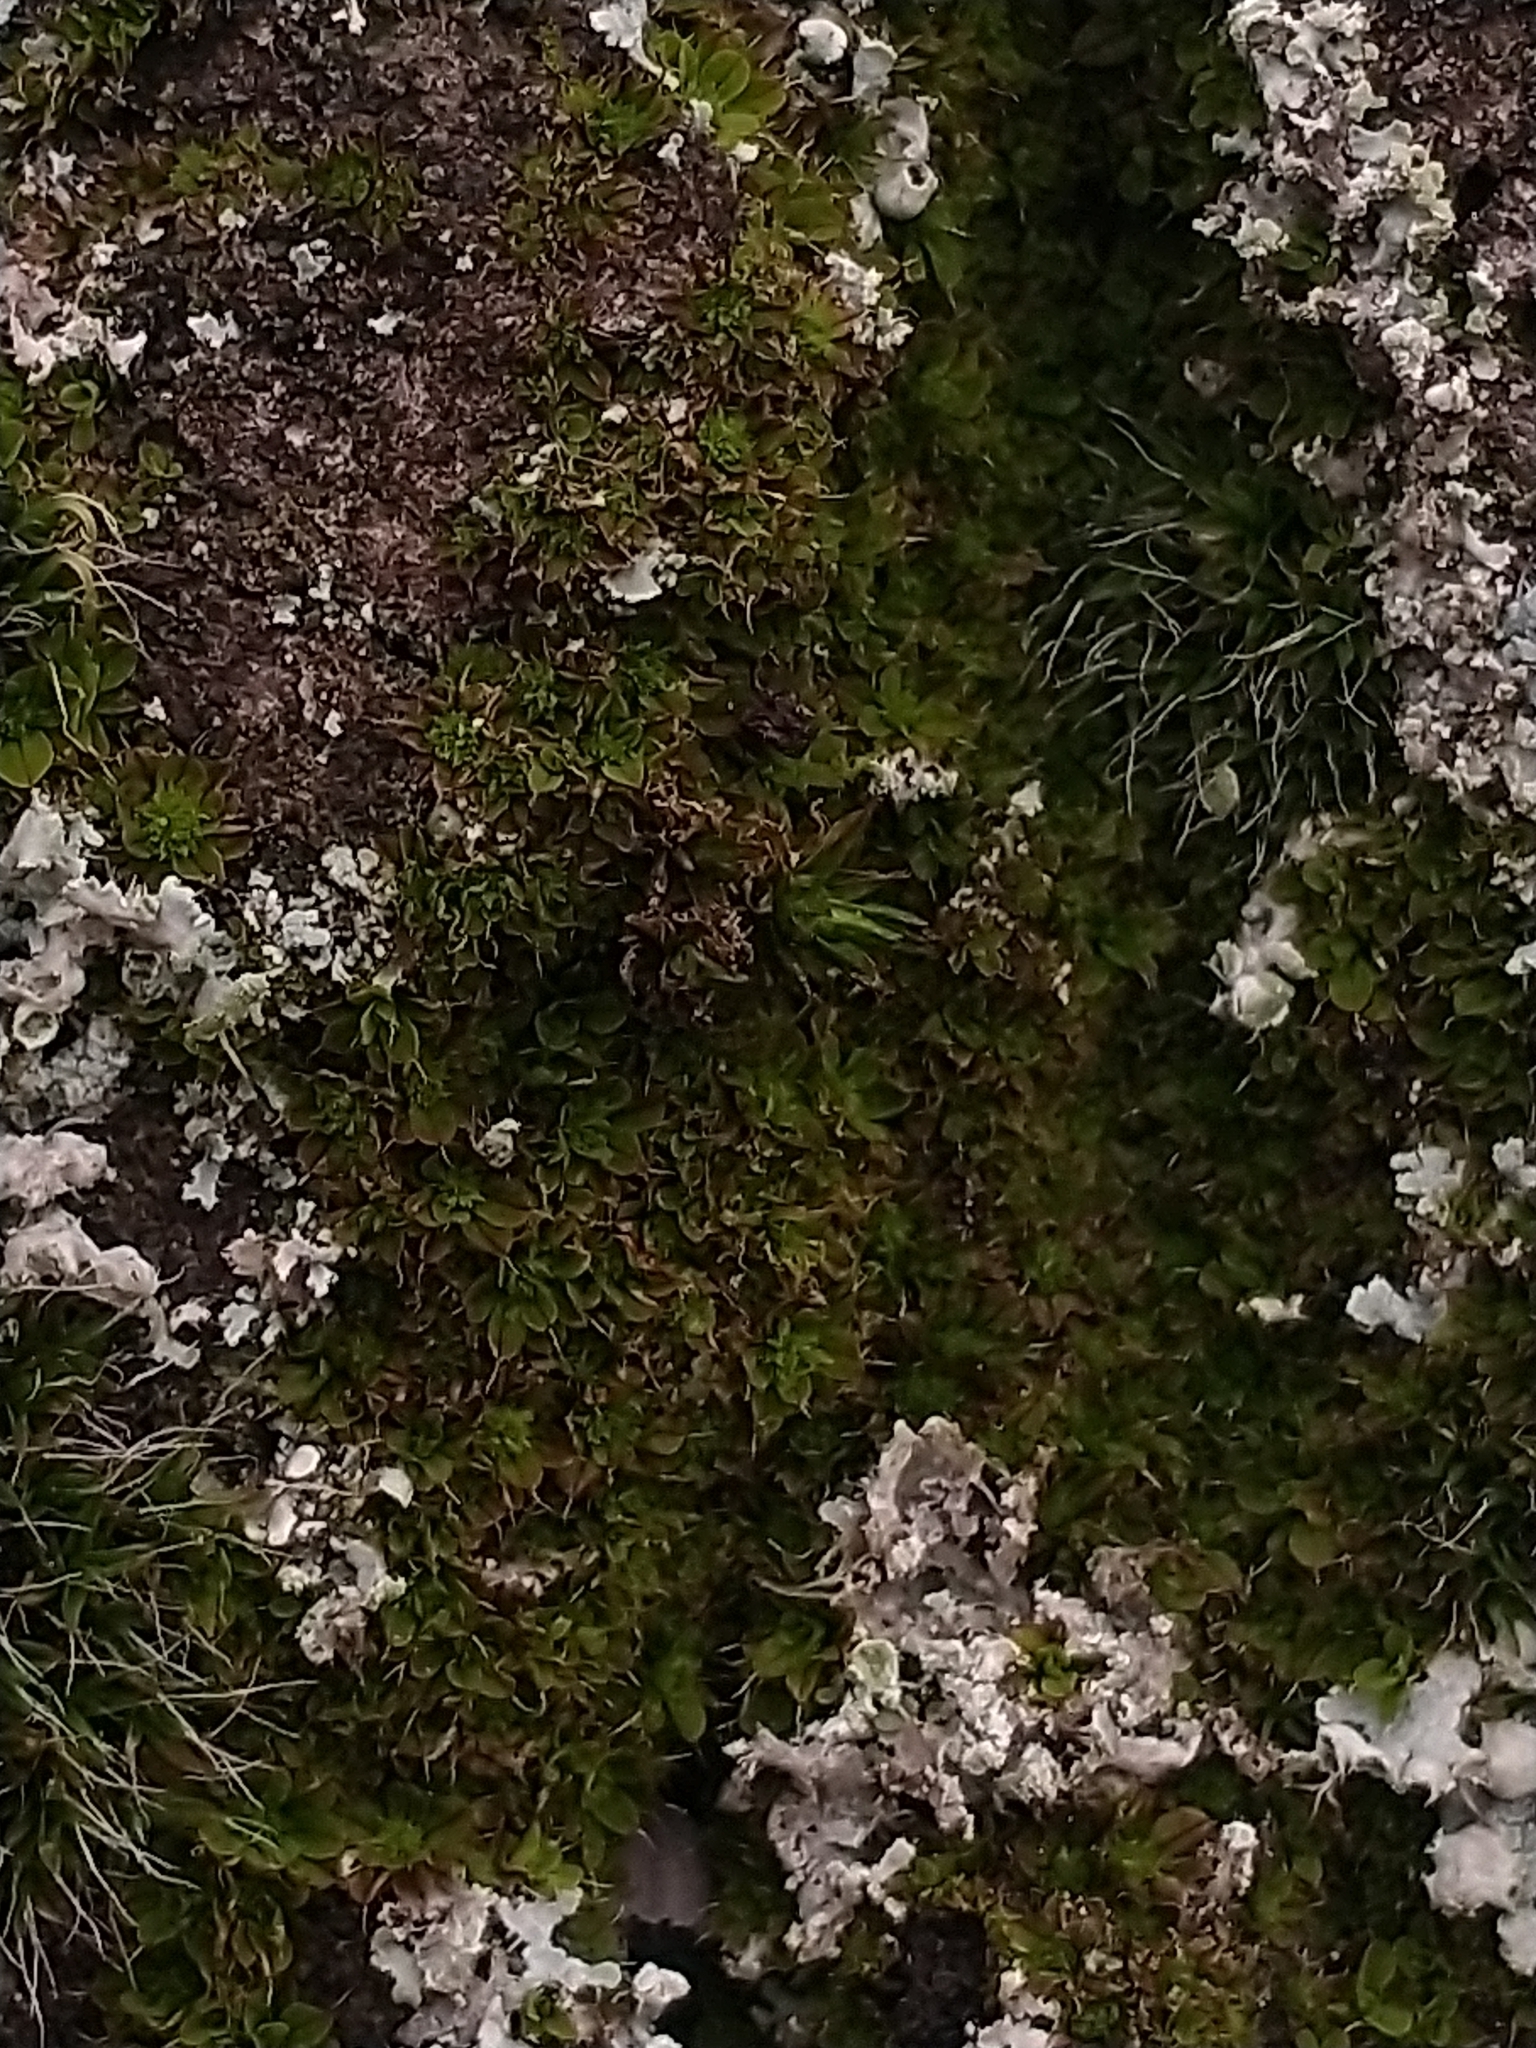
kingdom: Plantae
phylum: Bryophyta
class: Bryopsida
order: Pottiales
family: Pottiaceae
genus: Syntrichia
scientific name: Syntrichia pagorum
